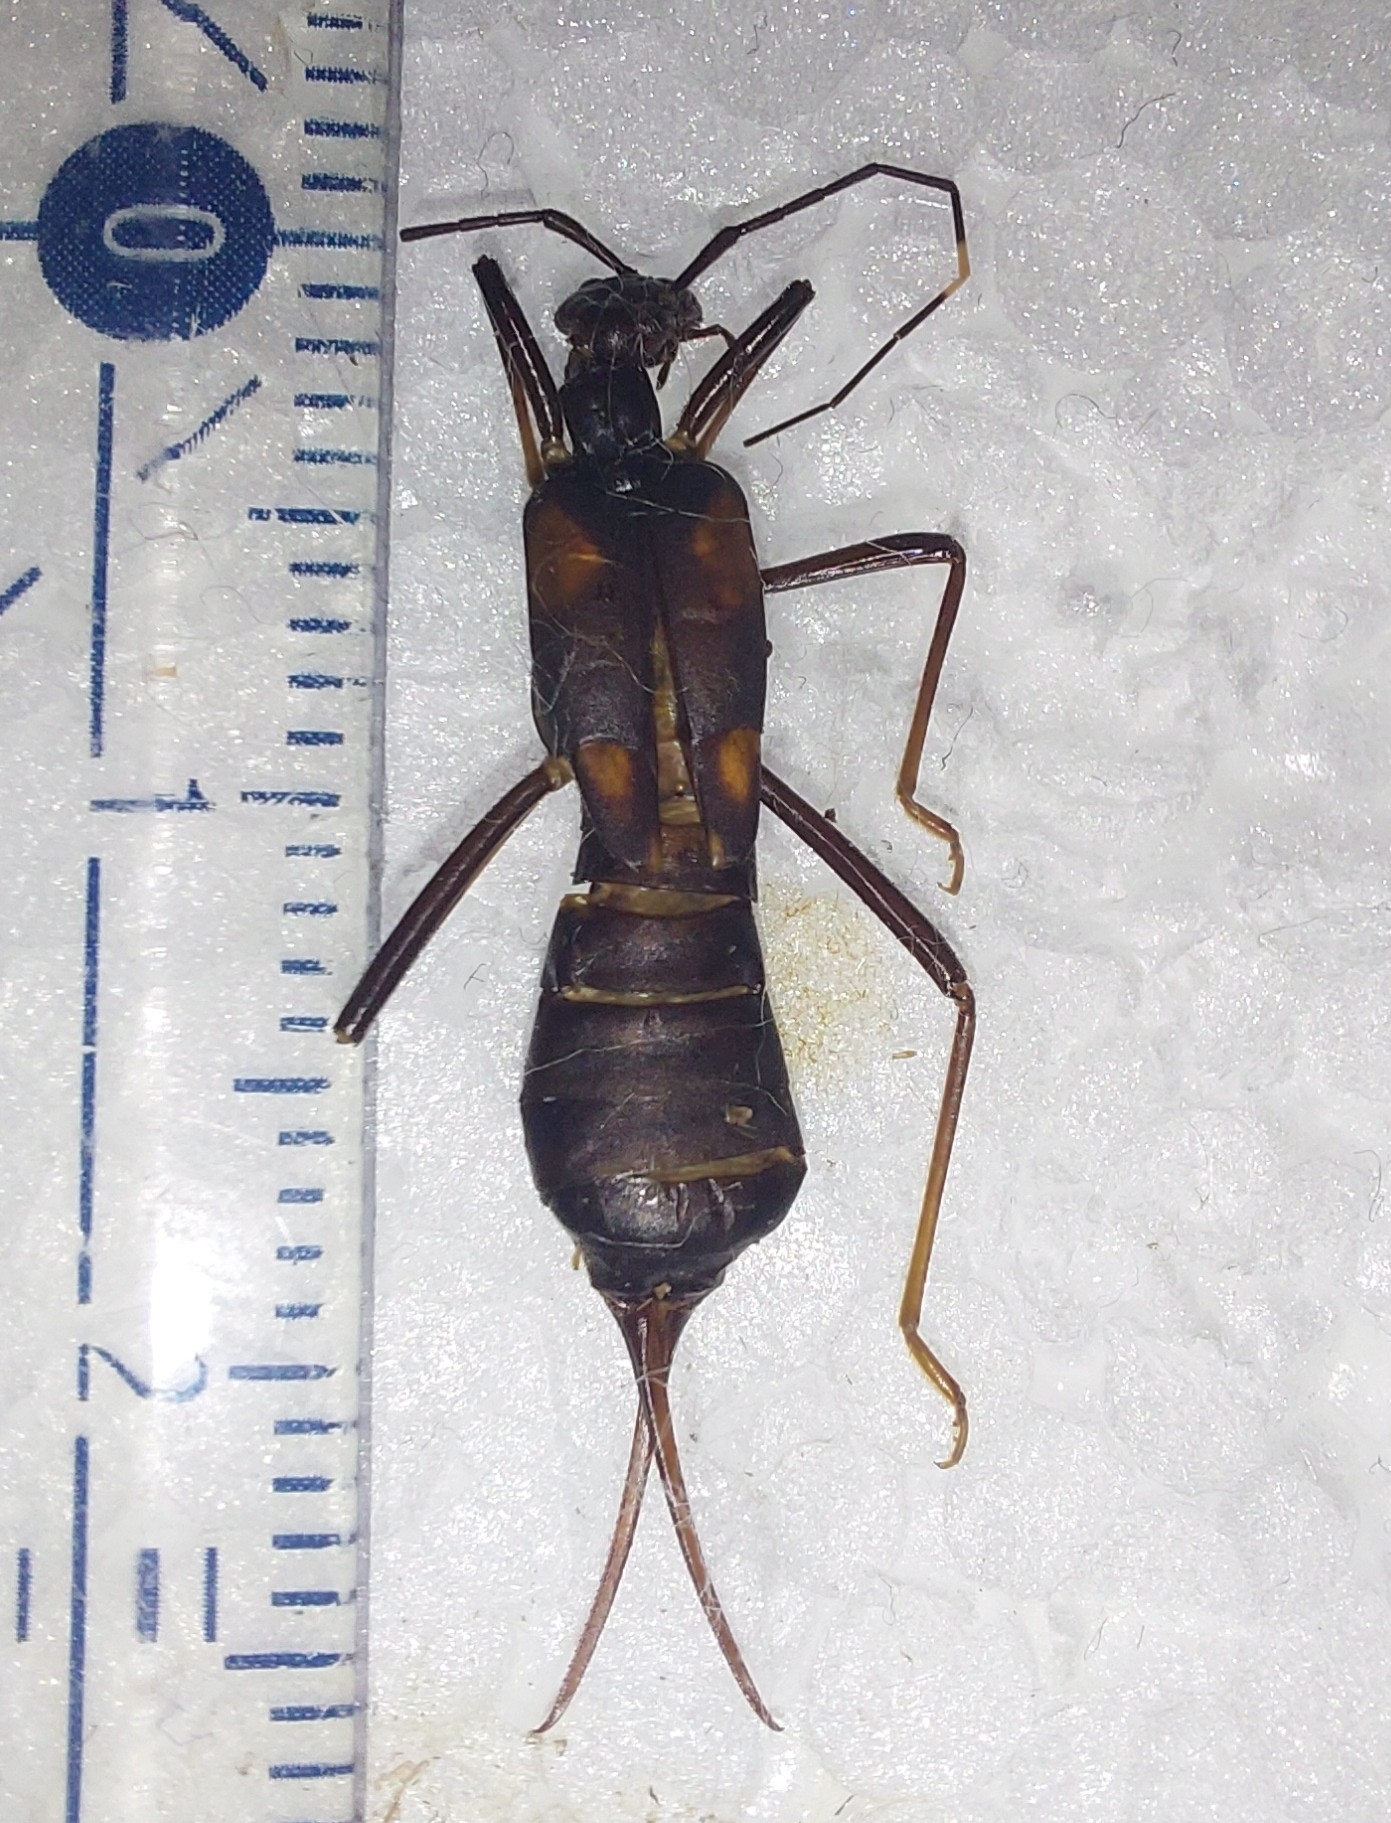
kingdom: Animalia
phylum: Arthropoda
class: Insecta
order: Dermaptera
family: Forficulidae
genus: Opisthocosmia
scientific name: Opisthocosmia centurio
